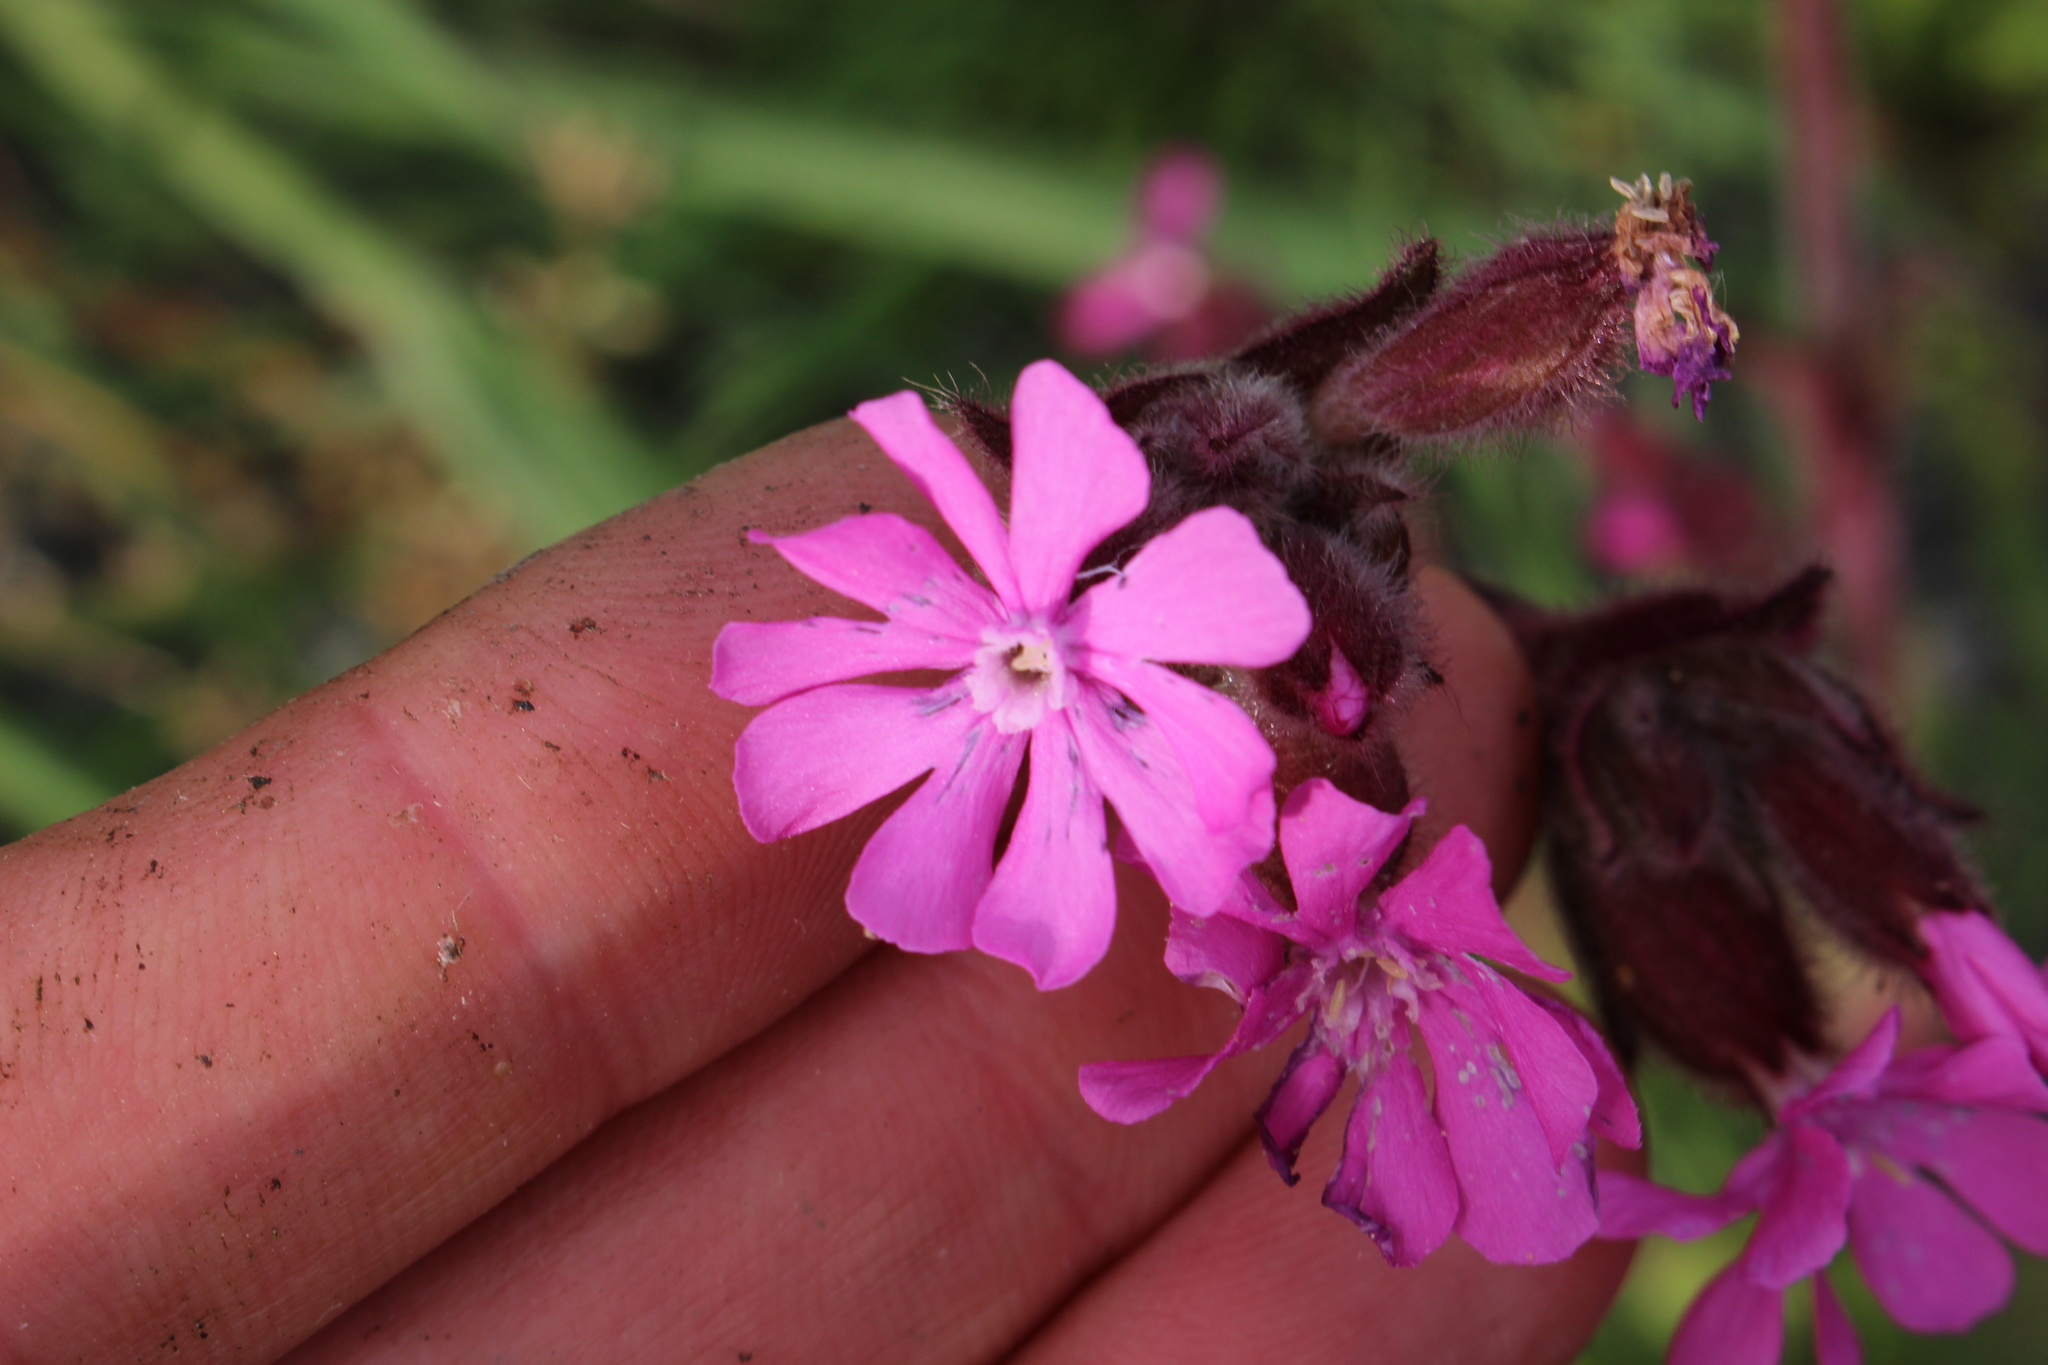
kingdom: Plantae
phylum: Tracheophyta
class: Magnoliopsida
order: Caryophyllales
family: Caryophyllaceae
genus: Silene
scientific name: Silene dioica
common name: Red campion
